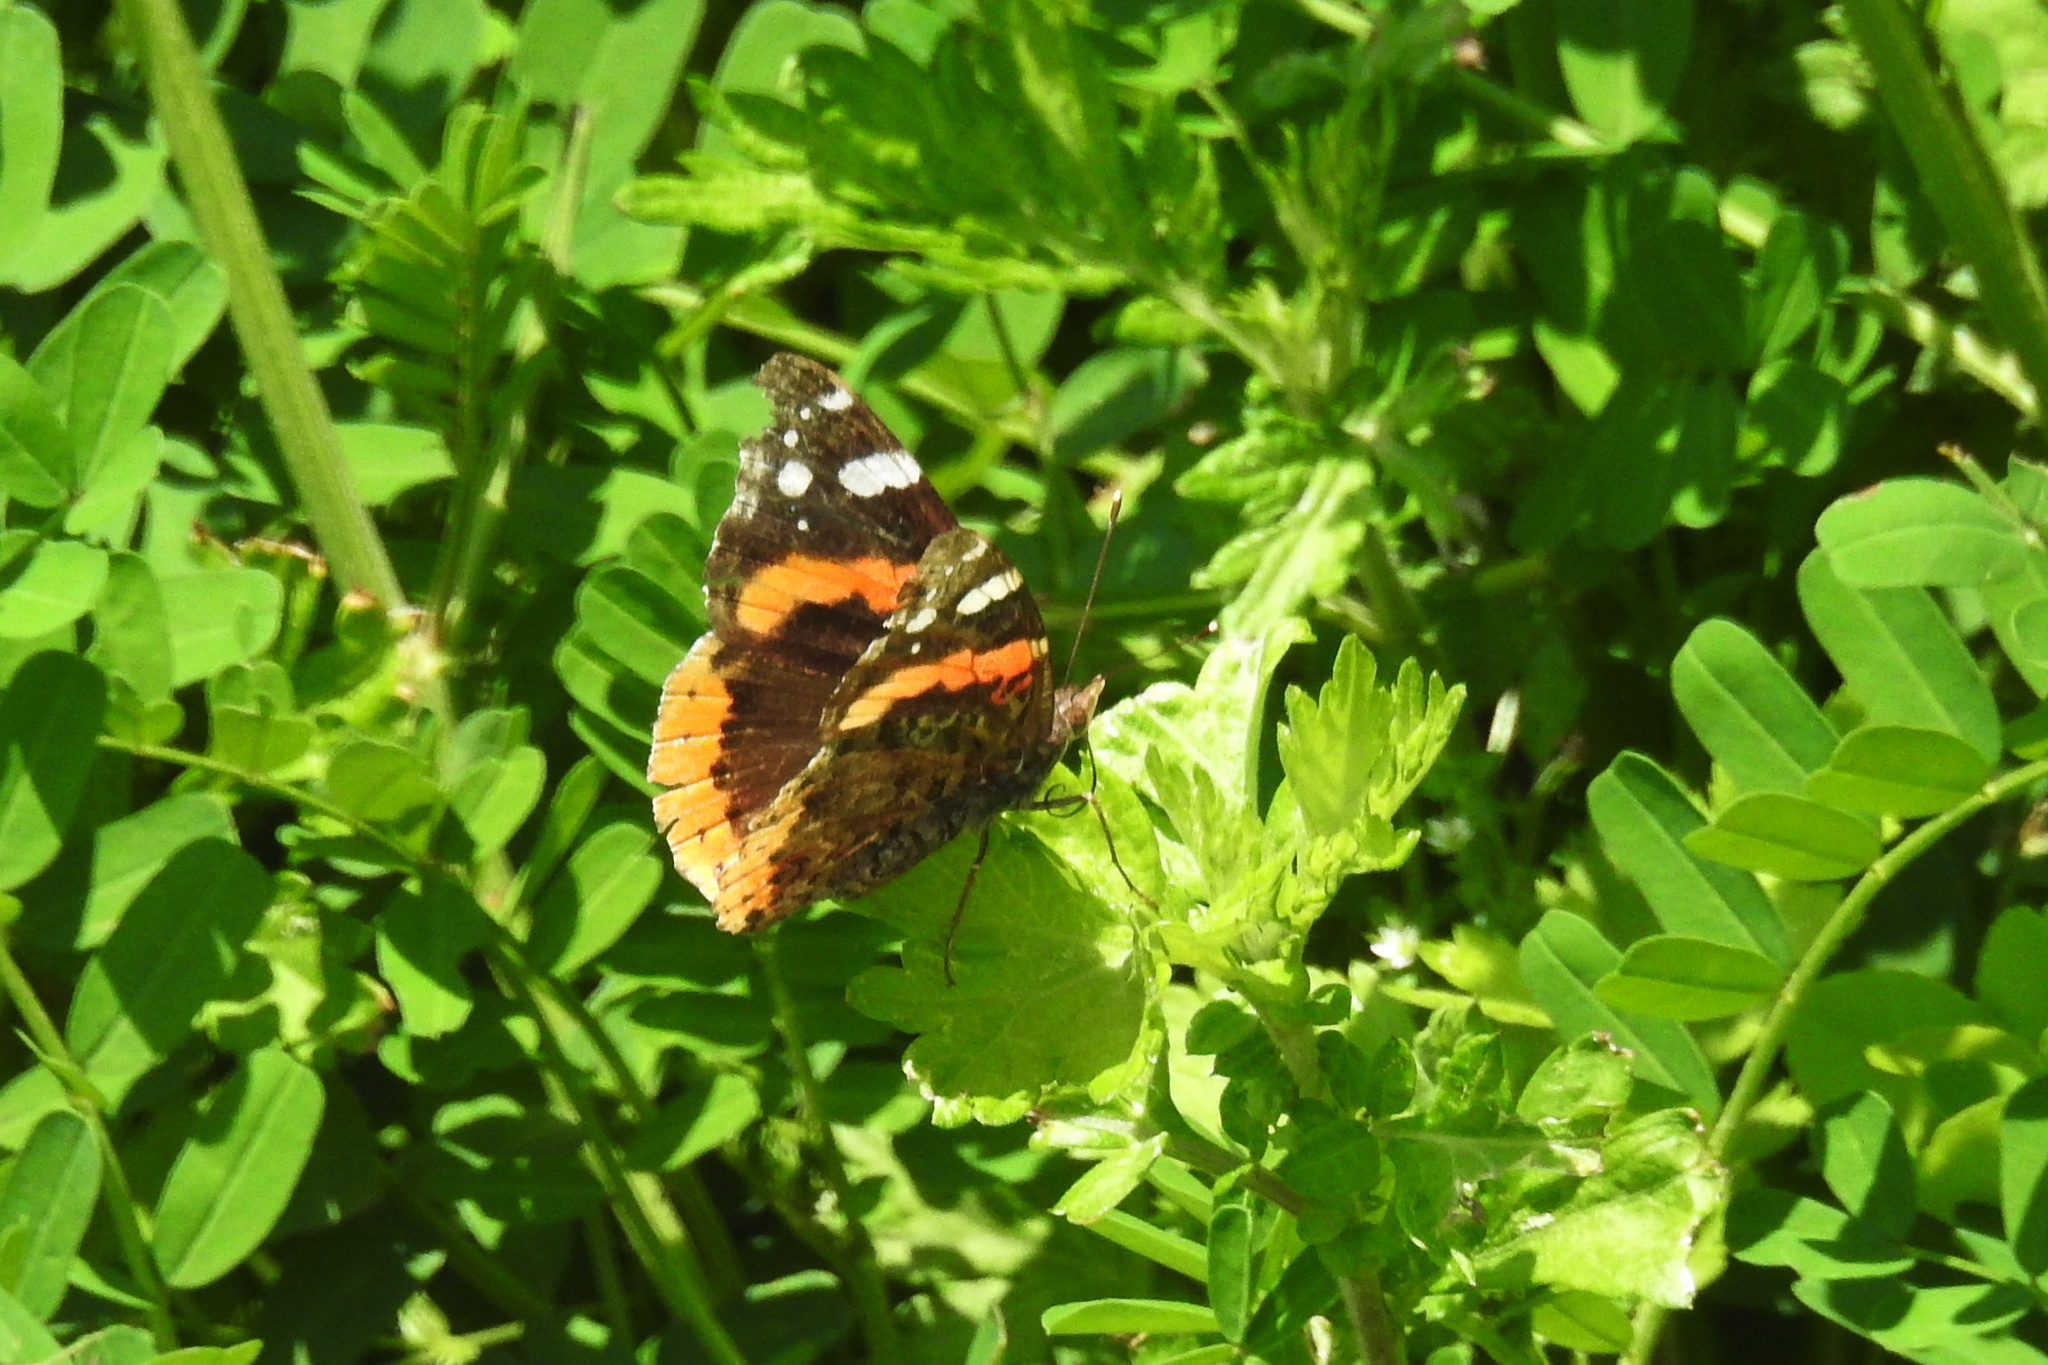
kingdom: Animalia
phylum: Arthropoda
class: Insecta
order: Lepidoptera
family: Nymphalidae
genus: Vanessa
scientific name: Vanessa atalanta
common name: Red admiral
